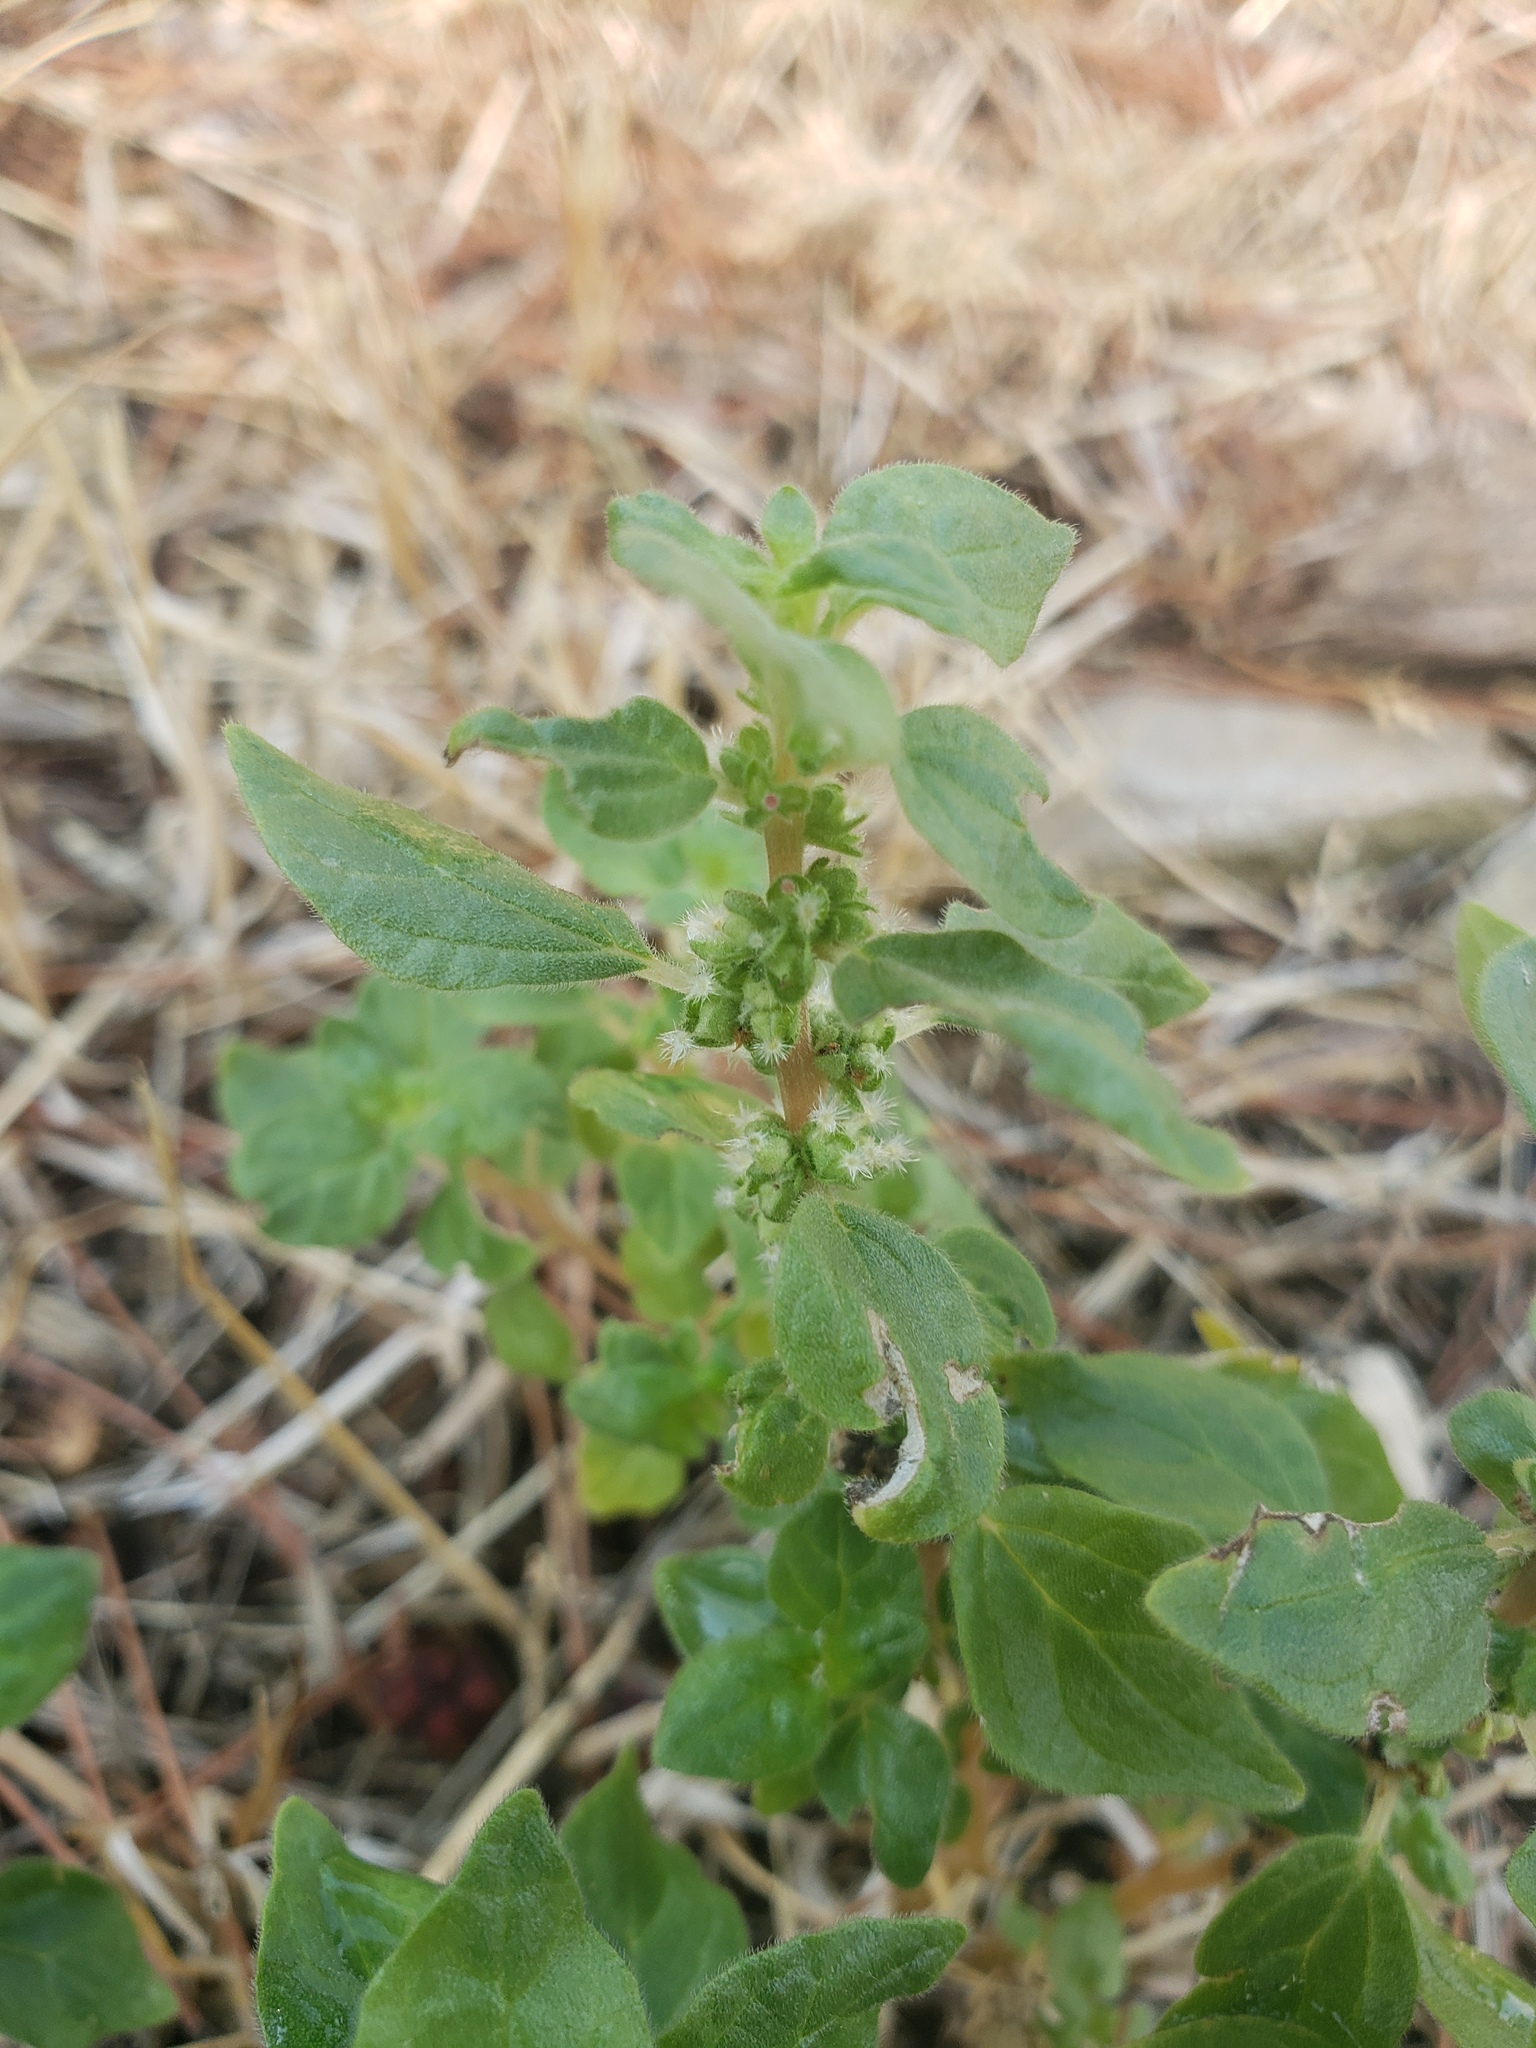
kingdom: Plantae
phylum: Tracheophyta
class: Magnoliopsida
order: Rosales
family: Urticaceae
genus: Parietaria
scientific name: Parietaria judaica
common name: Pellitory-of-the-wall
